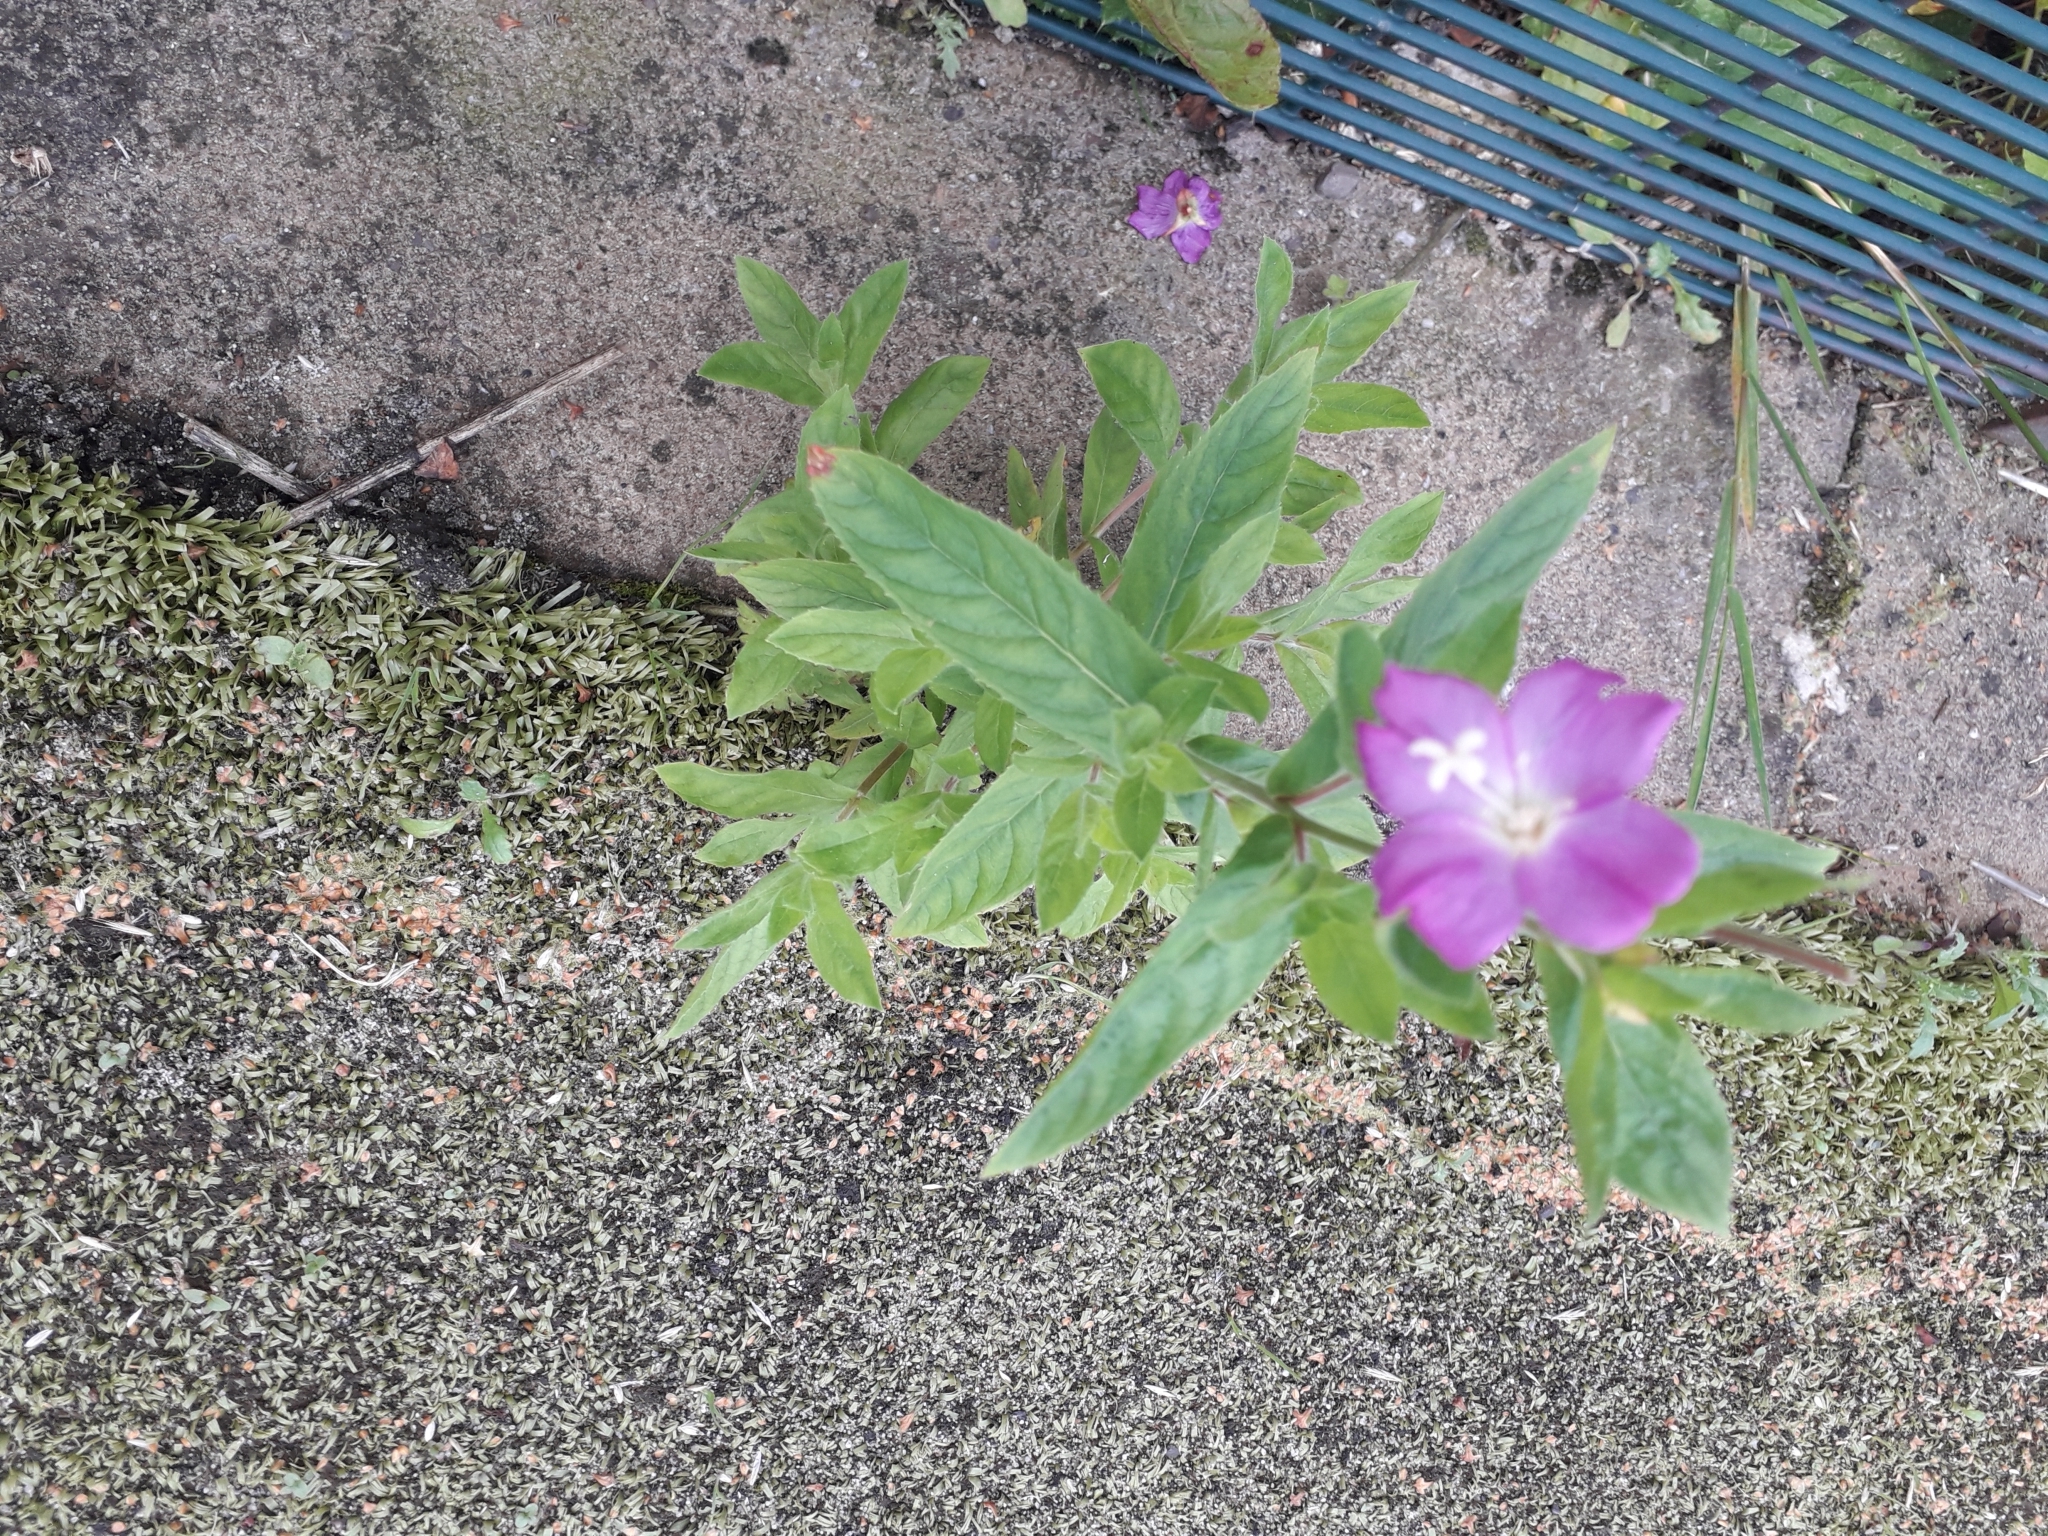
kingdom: Plantae
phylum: Tracheophyta
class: Magnoliopsida
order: Myrtales
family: Onagraceae
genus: Epilobium
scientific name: Epilobium hirsutum
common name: Great willowherb
